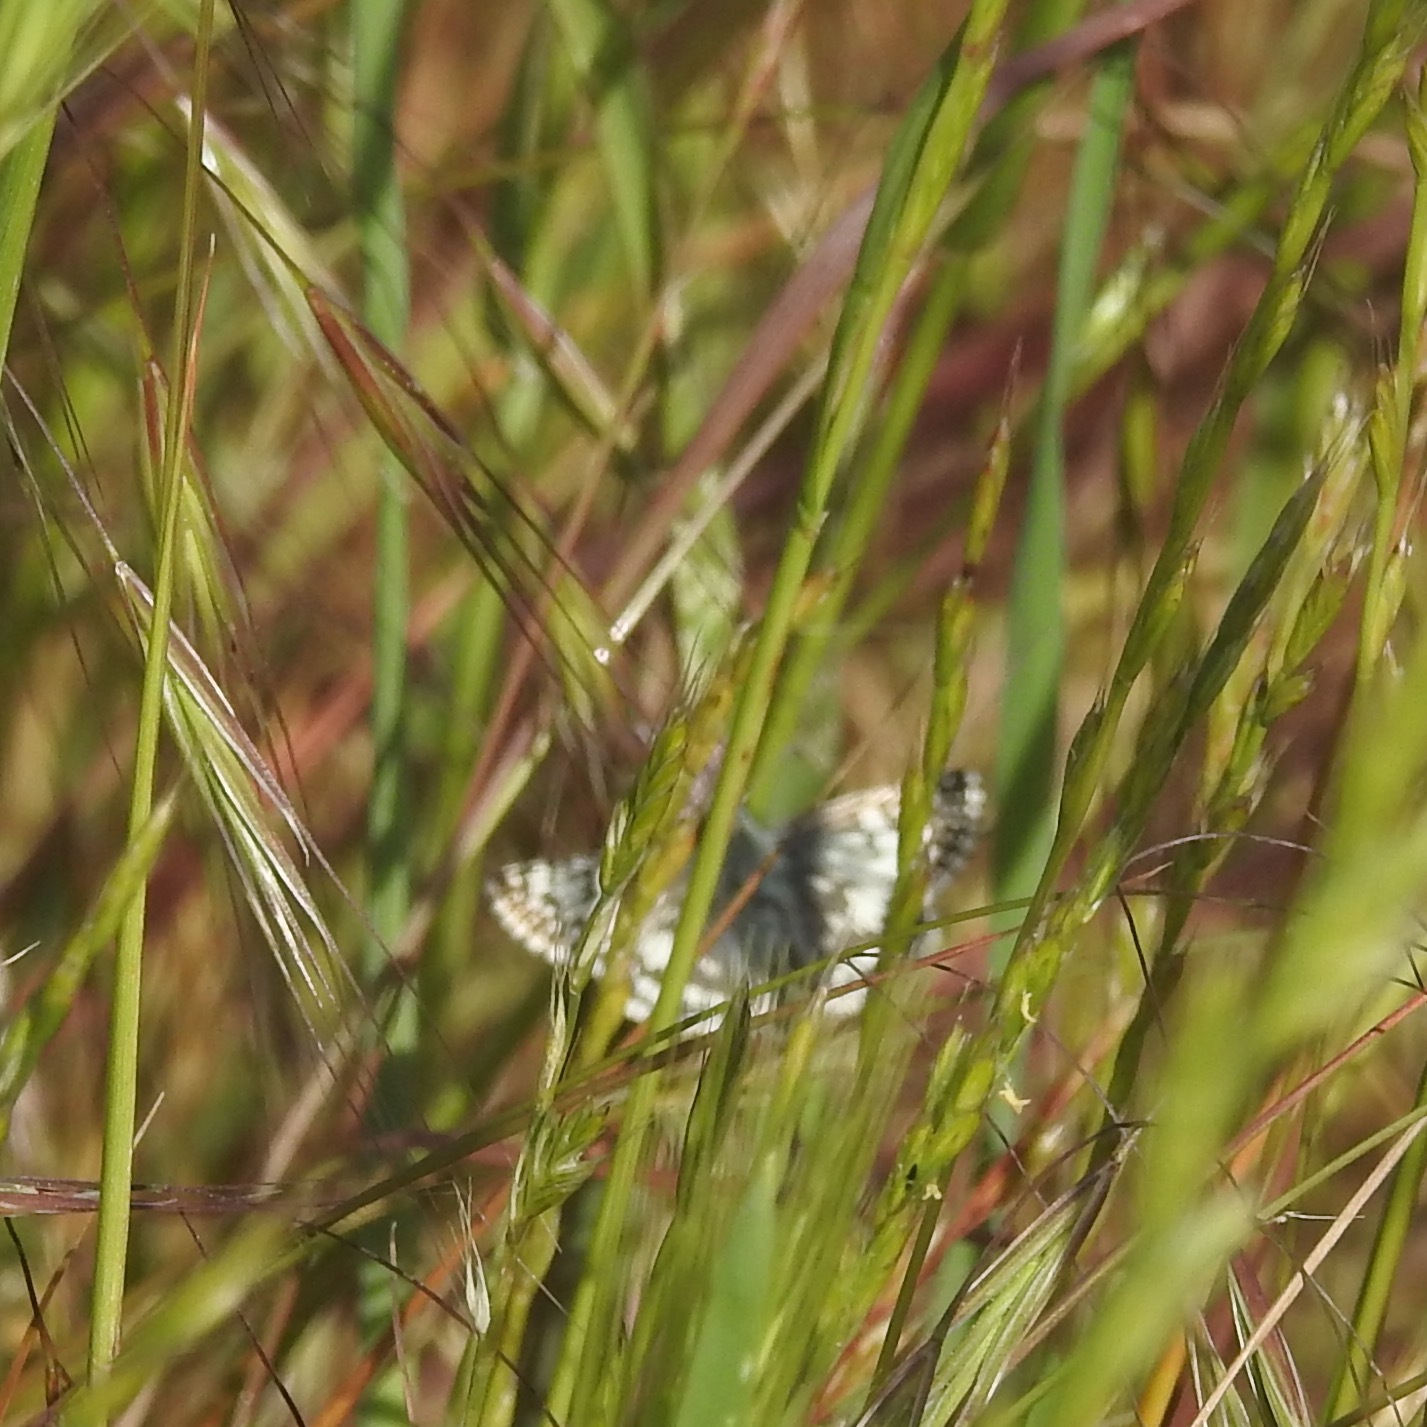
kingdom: Animalia
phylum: Arthropoda
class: Insecta
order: Lepidoptera
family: Hesperiidae
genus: Burnsius
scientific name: Burnsius communis
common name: Common checkered-skipper
